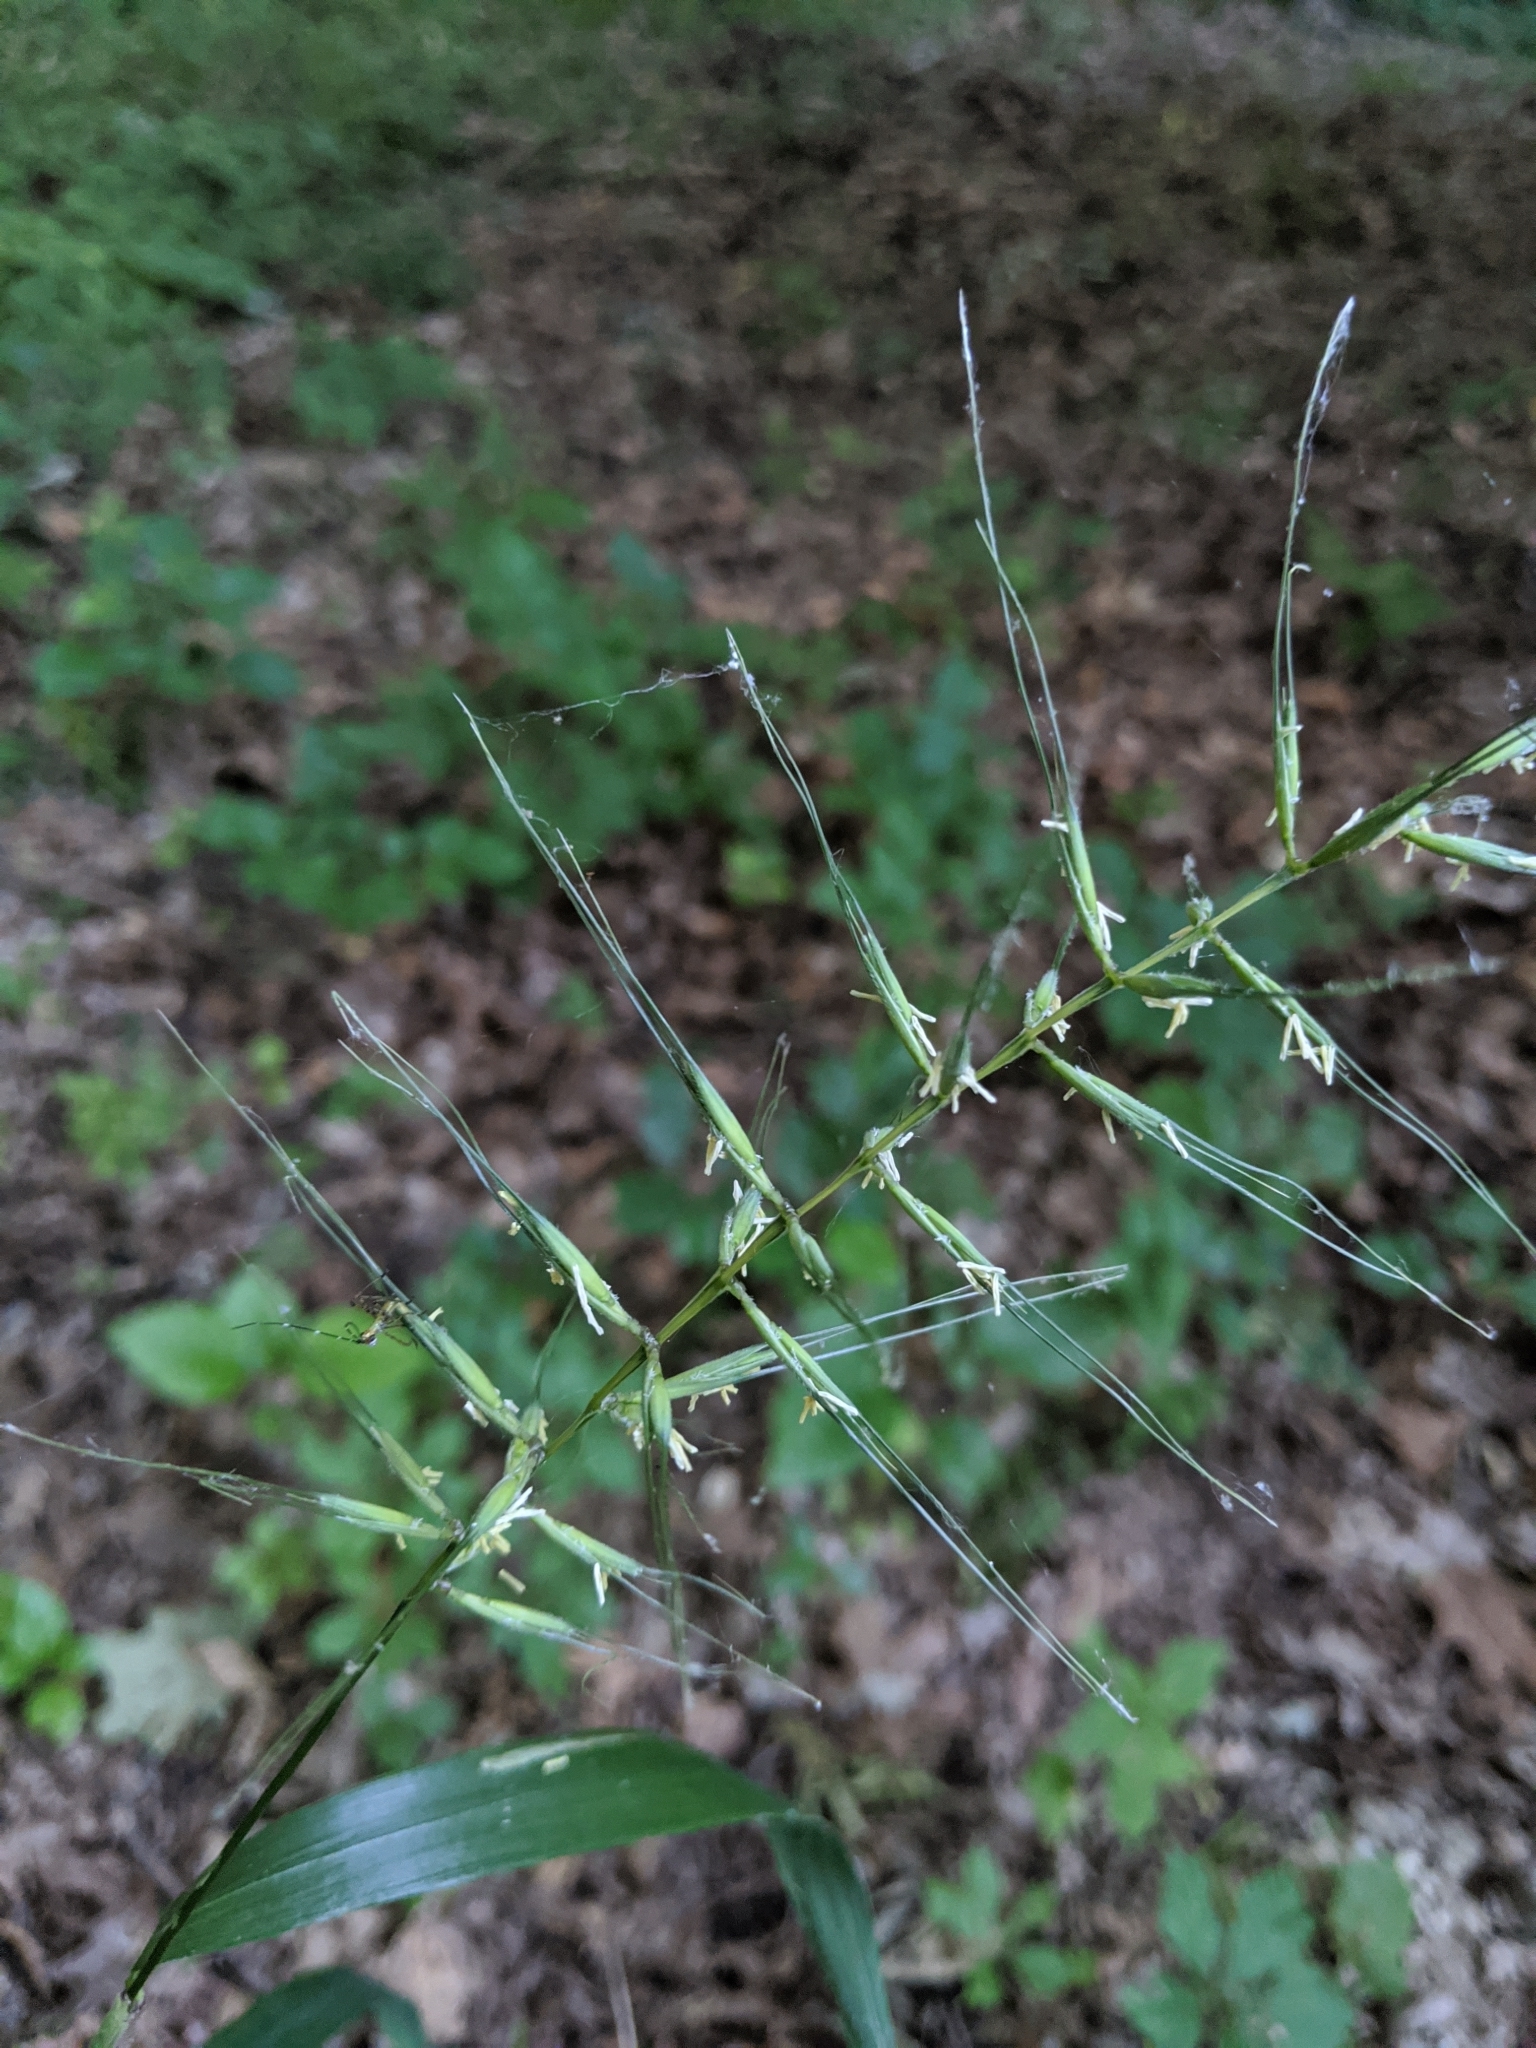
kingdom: Plantae
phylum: Tracheophyta
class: Liliopsida
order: Poales
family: Poaceae
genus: Elymus
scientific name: Elymus hystrix
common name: Bottlebrush grass
